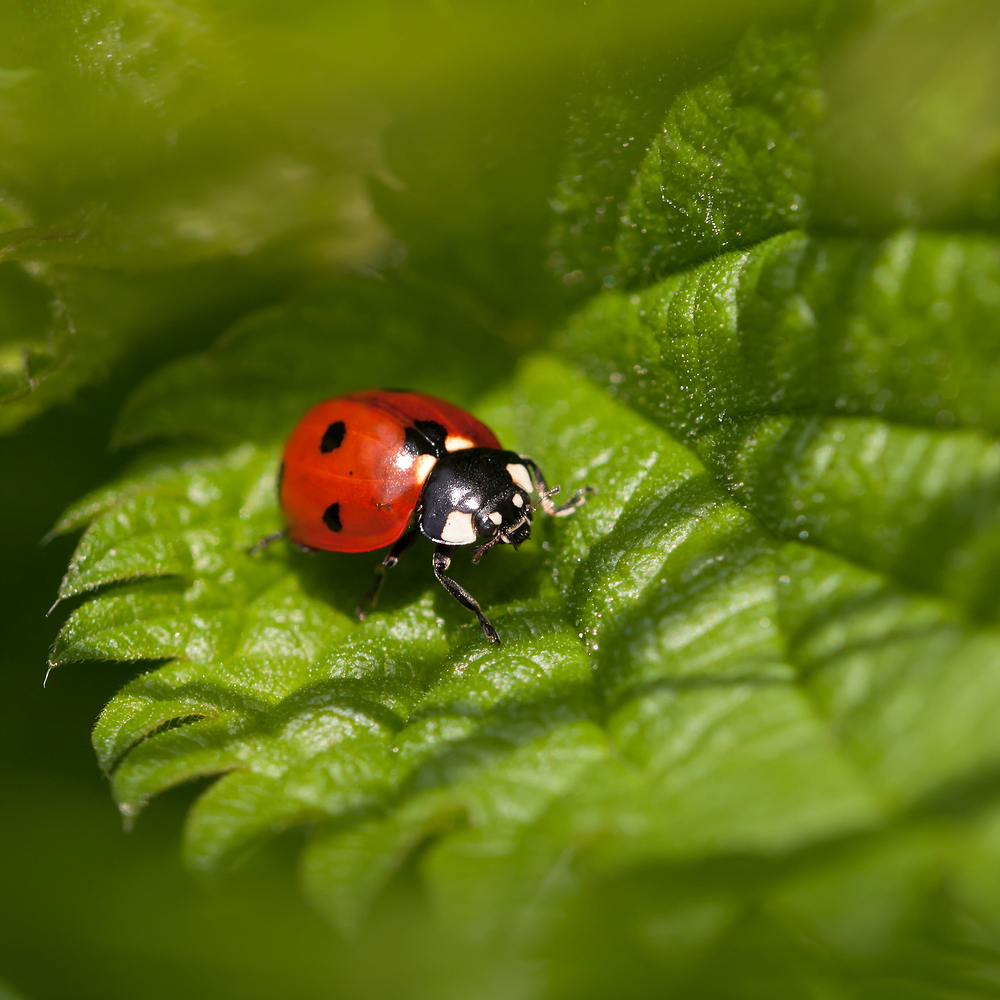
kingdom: Animalia
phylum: Arthropoda
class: Insecta
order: Coleoptera
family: Coccinellidae
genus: Coccinella
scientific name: Coccinella septempunctata
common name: Sevenspotted lady beetle
